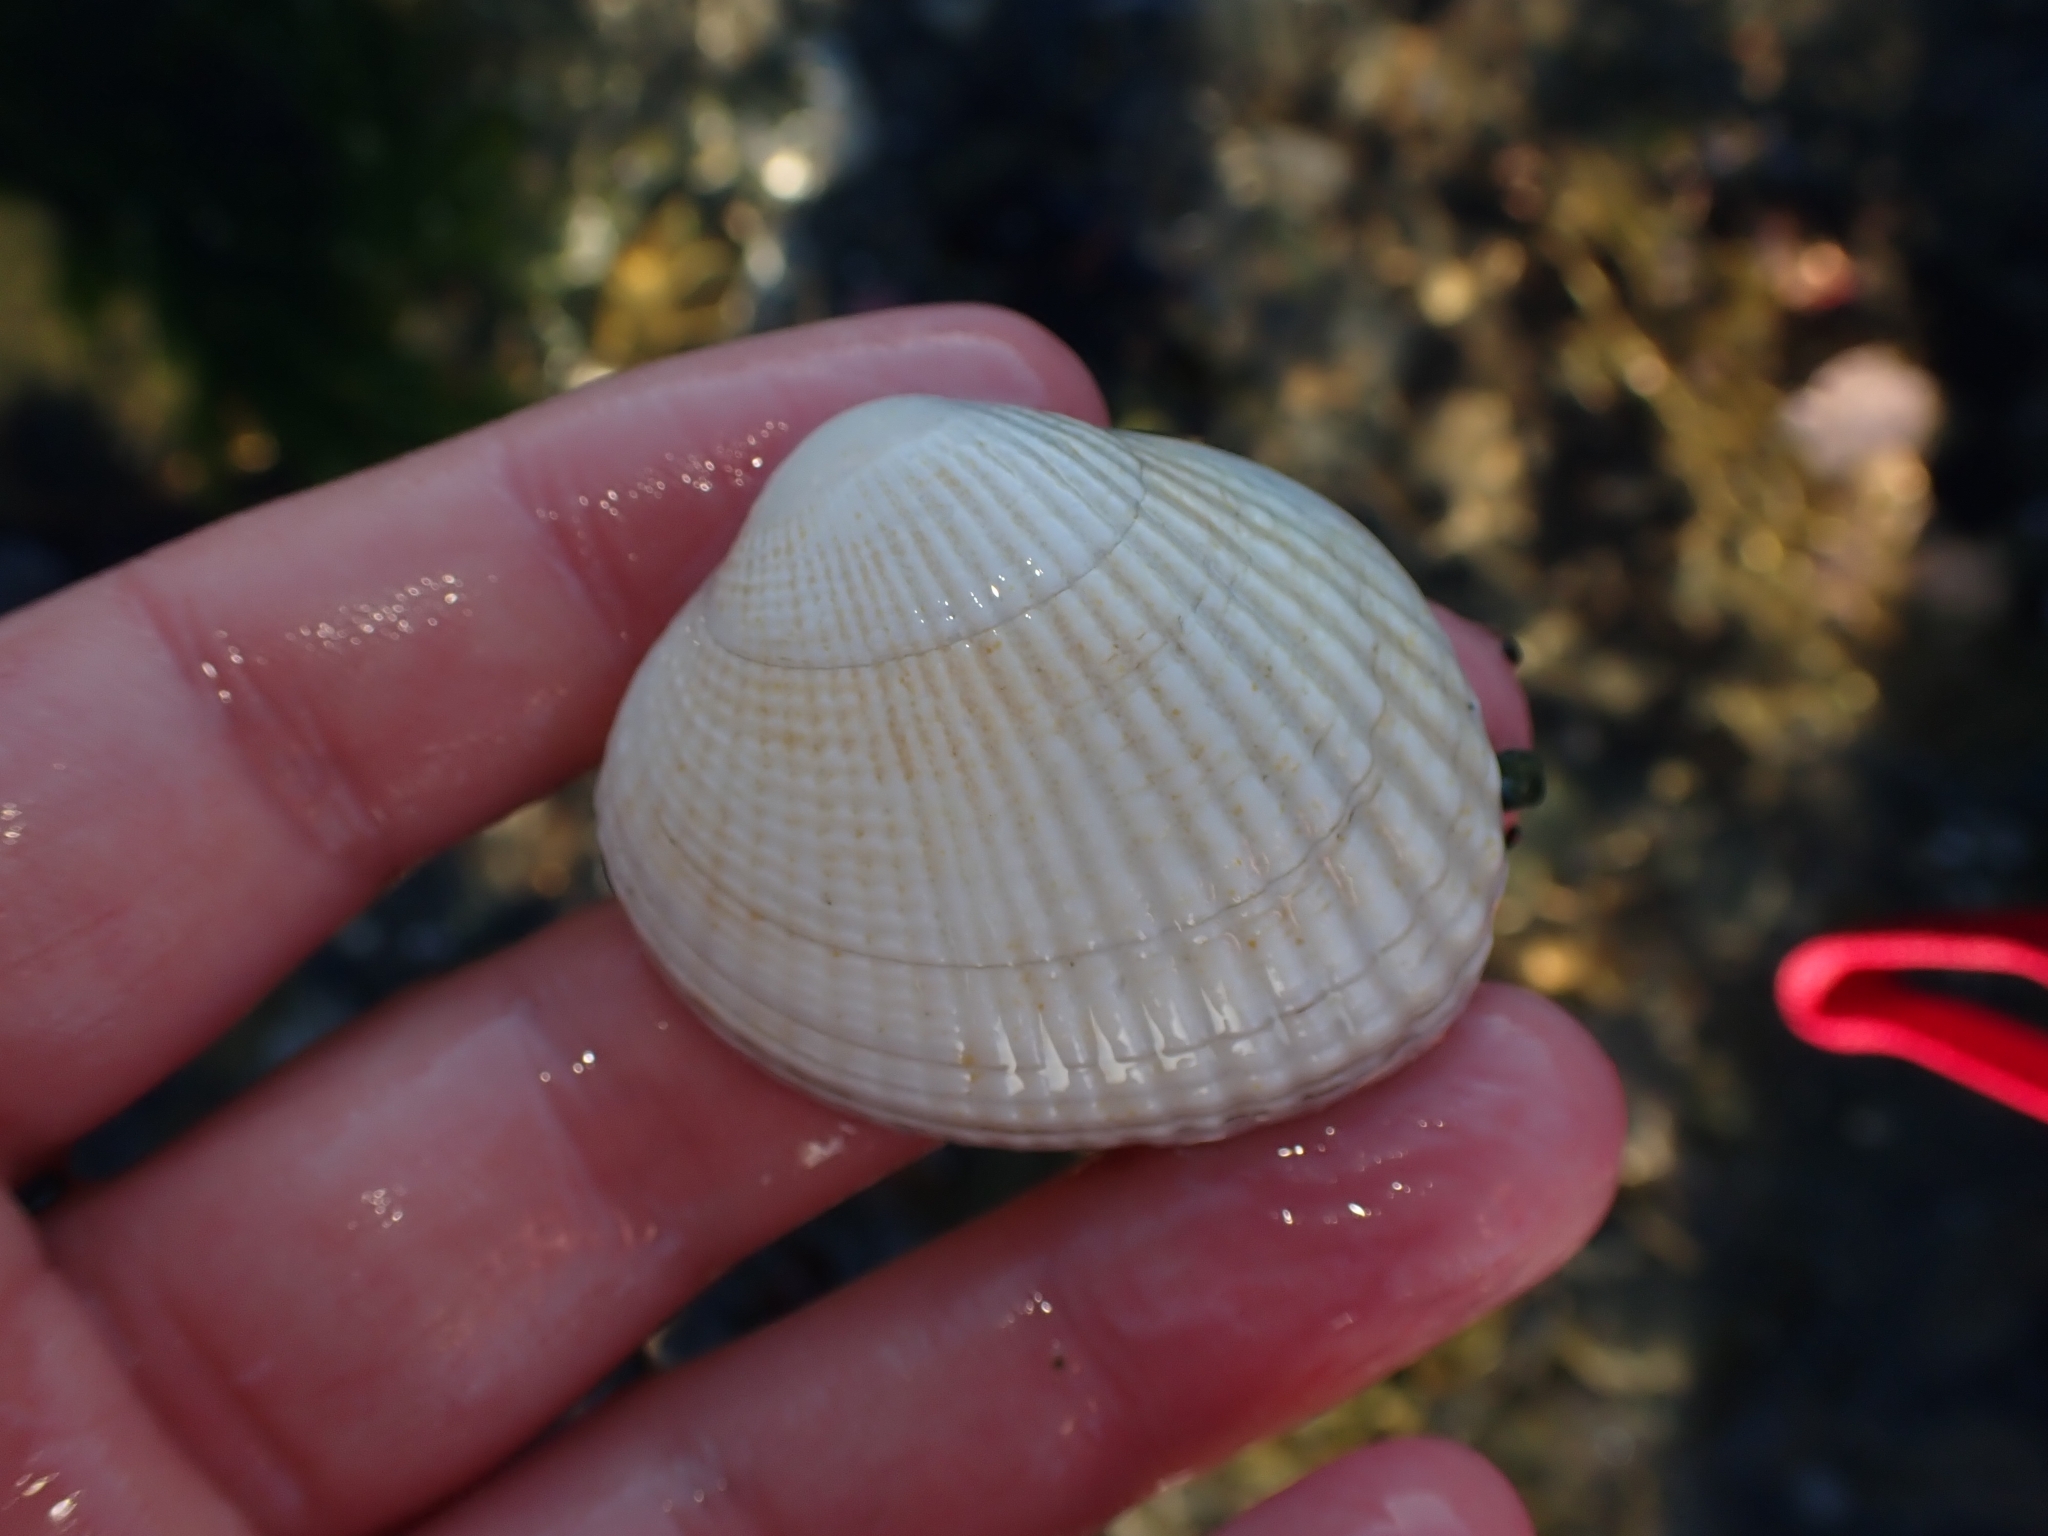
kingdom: Animalia
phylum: Mollusca
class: Bivalvia
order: Venerida
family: Veneridae
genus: Leukoma
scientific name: Leukoma crassicosta
